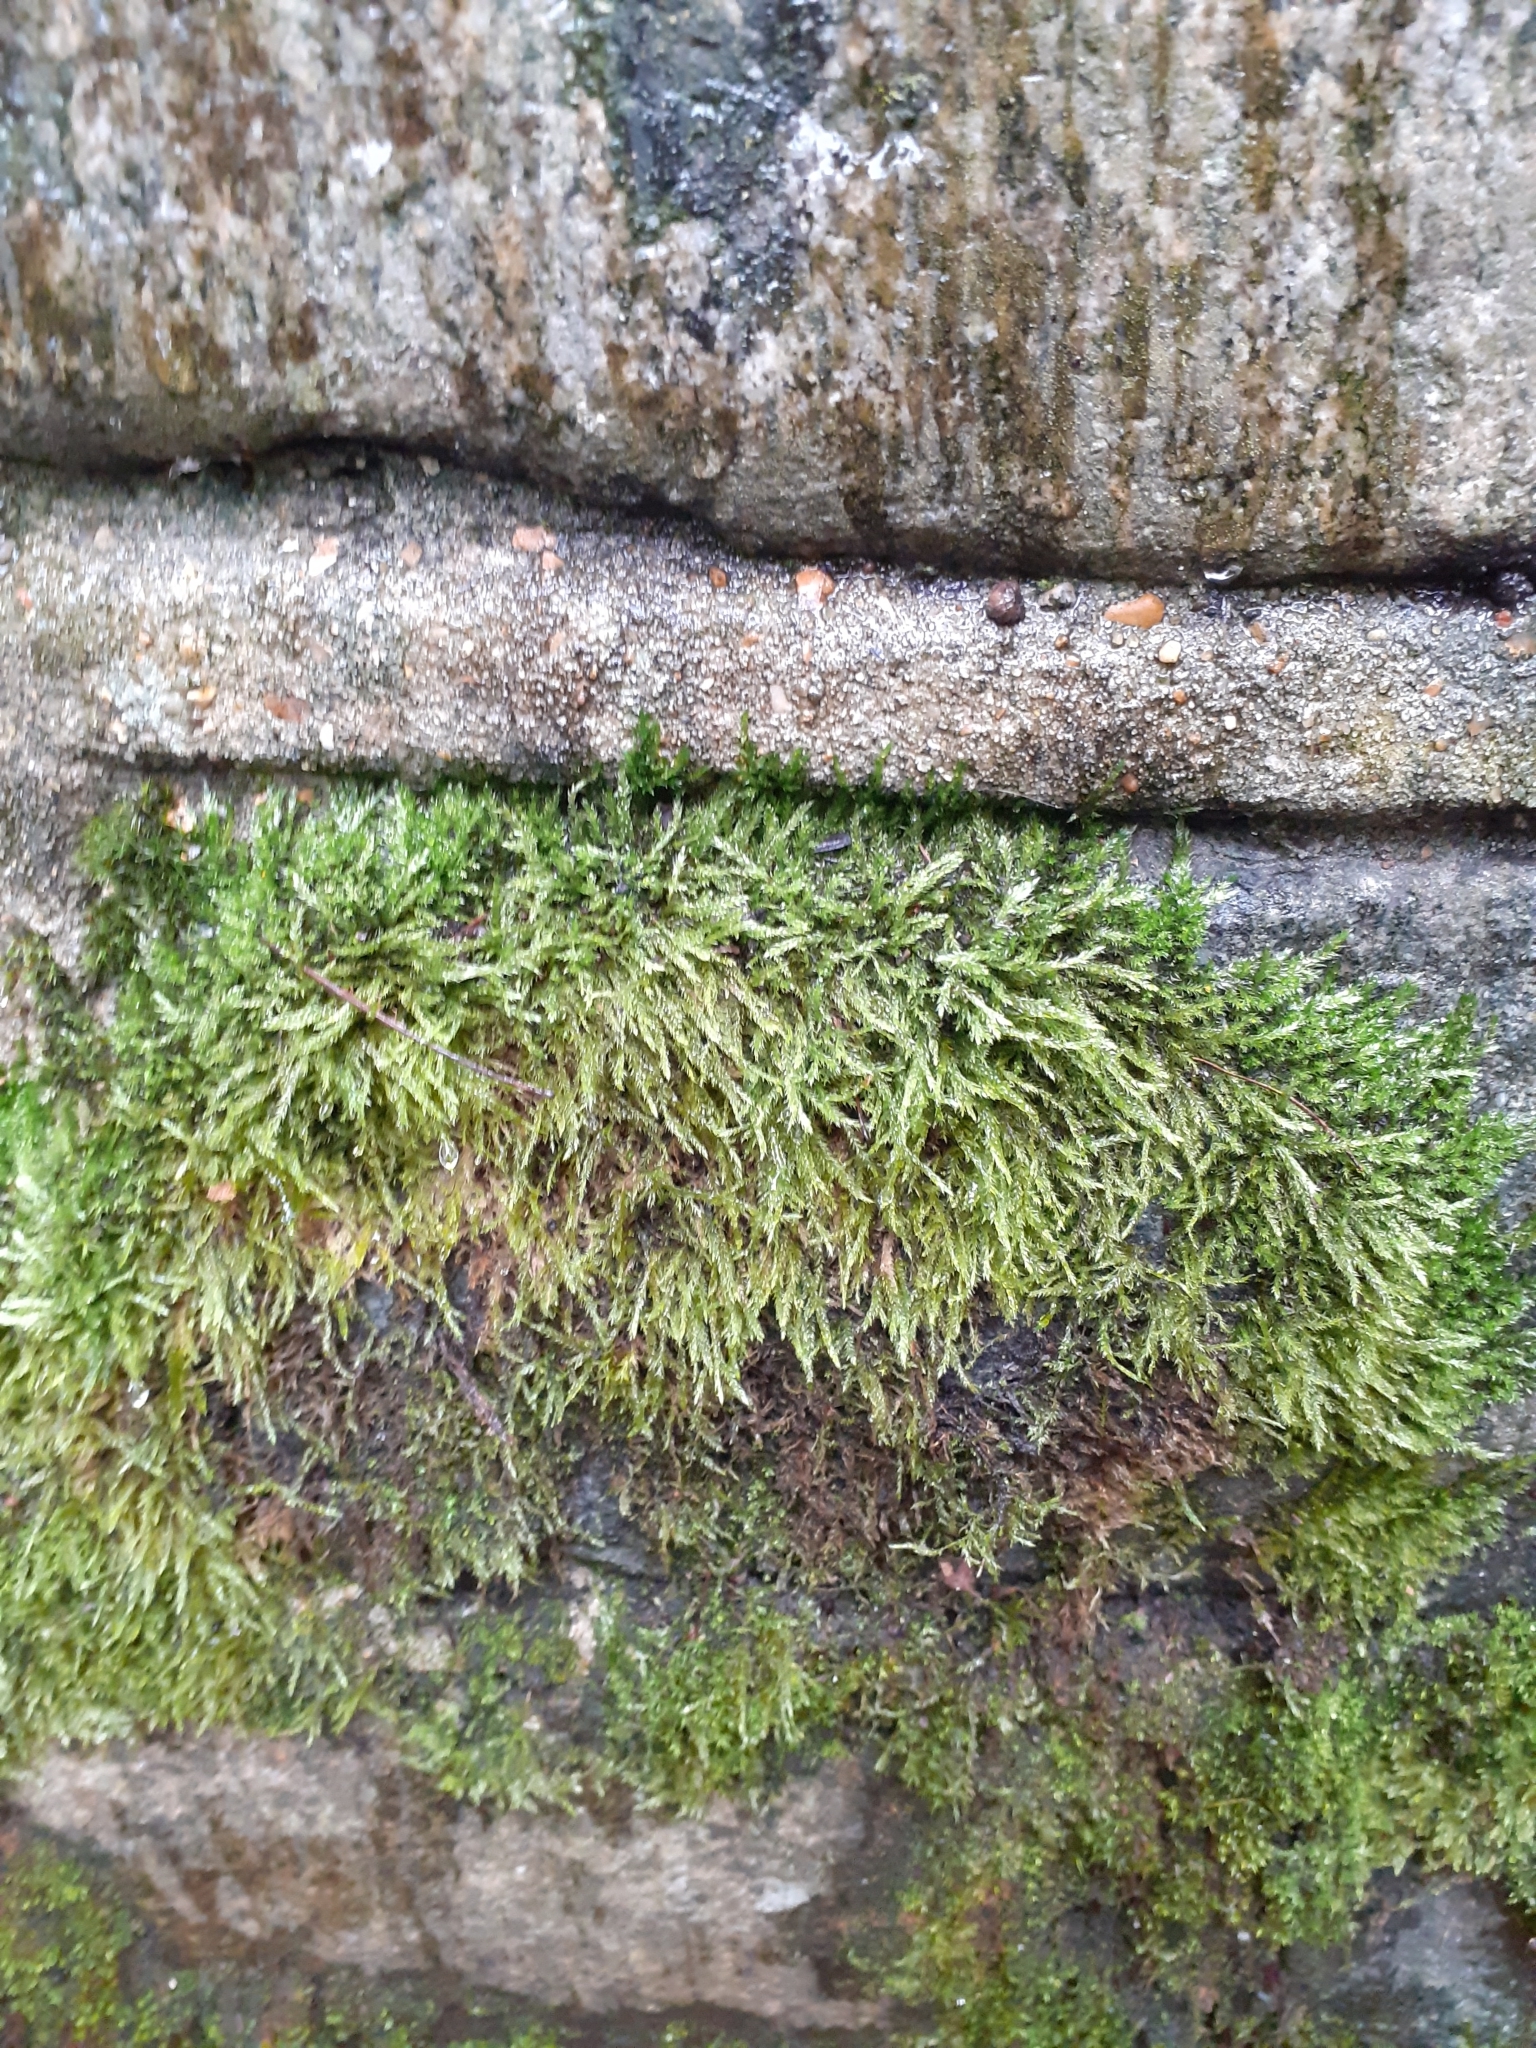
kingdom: Plantae
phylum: Bryophyta
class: Bryopsida
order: Hypnales
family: Hypnaceae
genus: Hypnum
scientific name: Hypnum cupressiforme
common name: Cypress-leaved plait-moss
